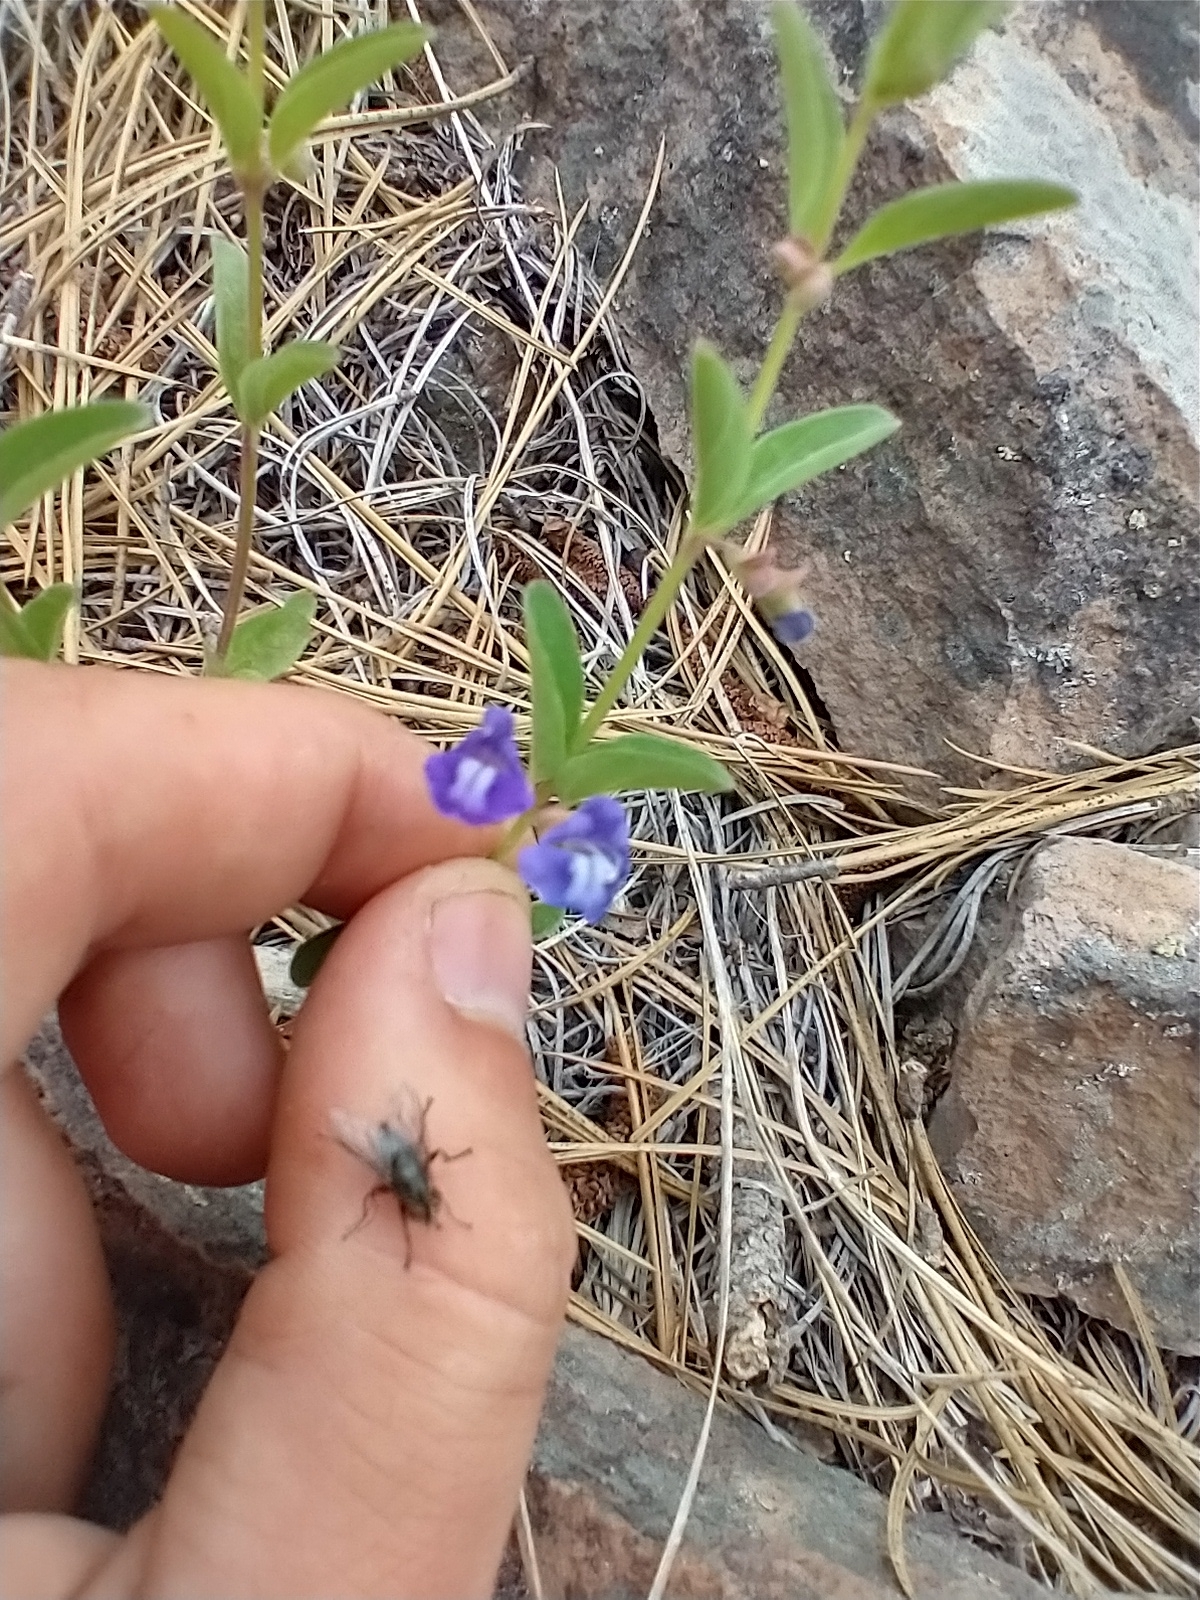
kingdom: Plantae
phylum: Tracheophyta
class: Magnoliopsida
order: Lamiales
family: Lamiaceae
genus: Scutellaria
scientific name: Scutellaria angustifolia
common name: Narrow-leaved skullcap
